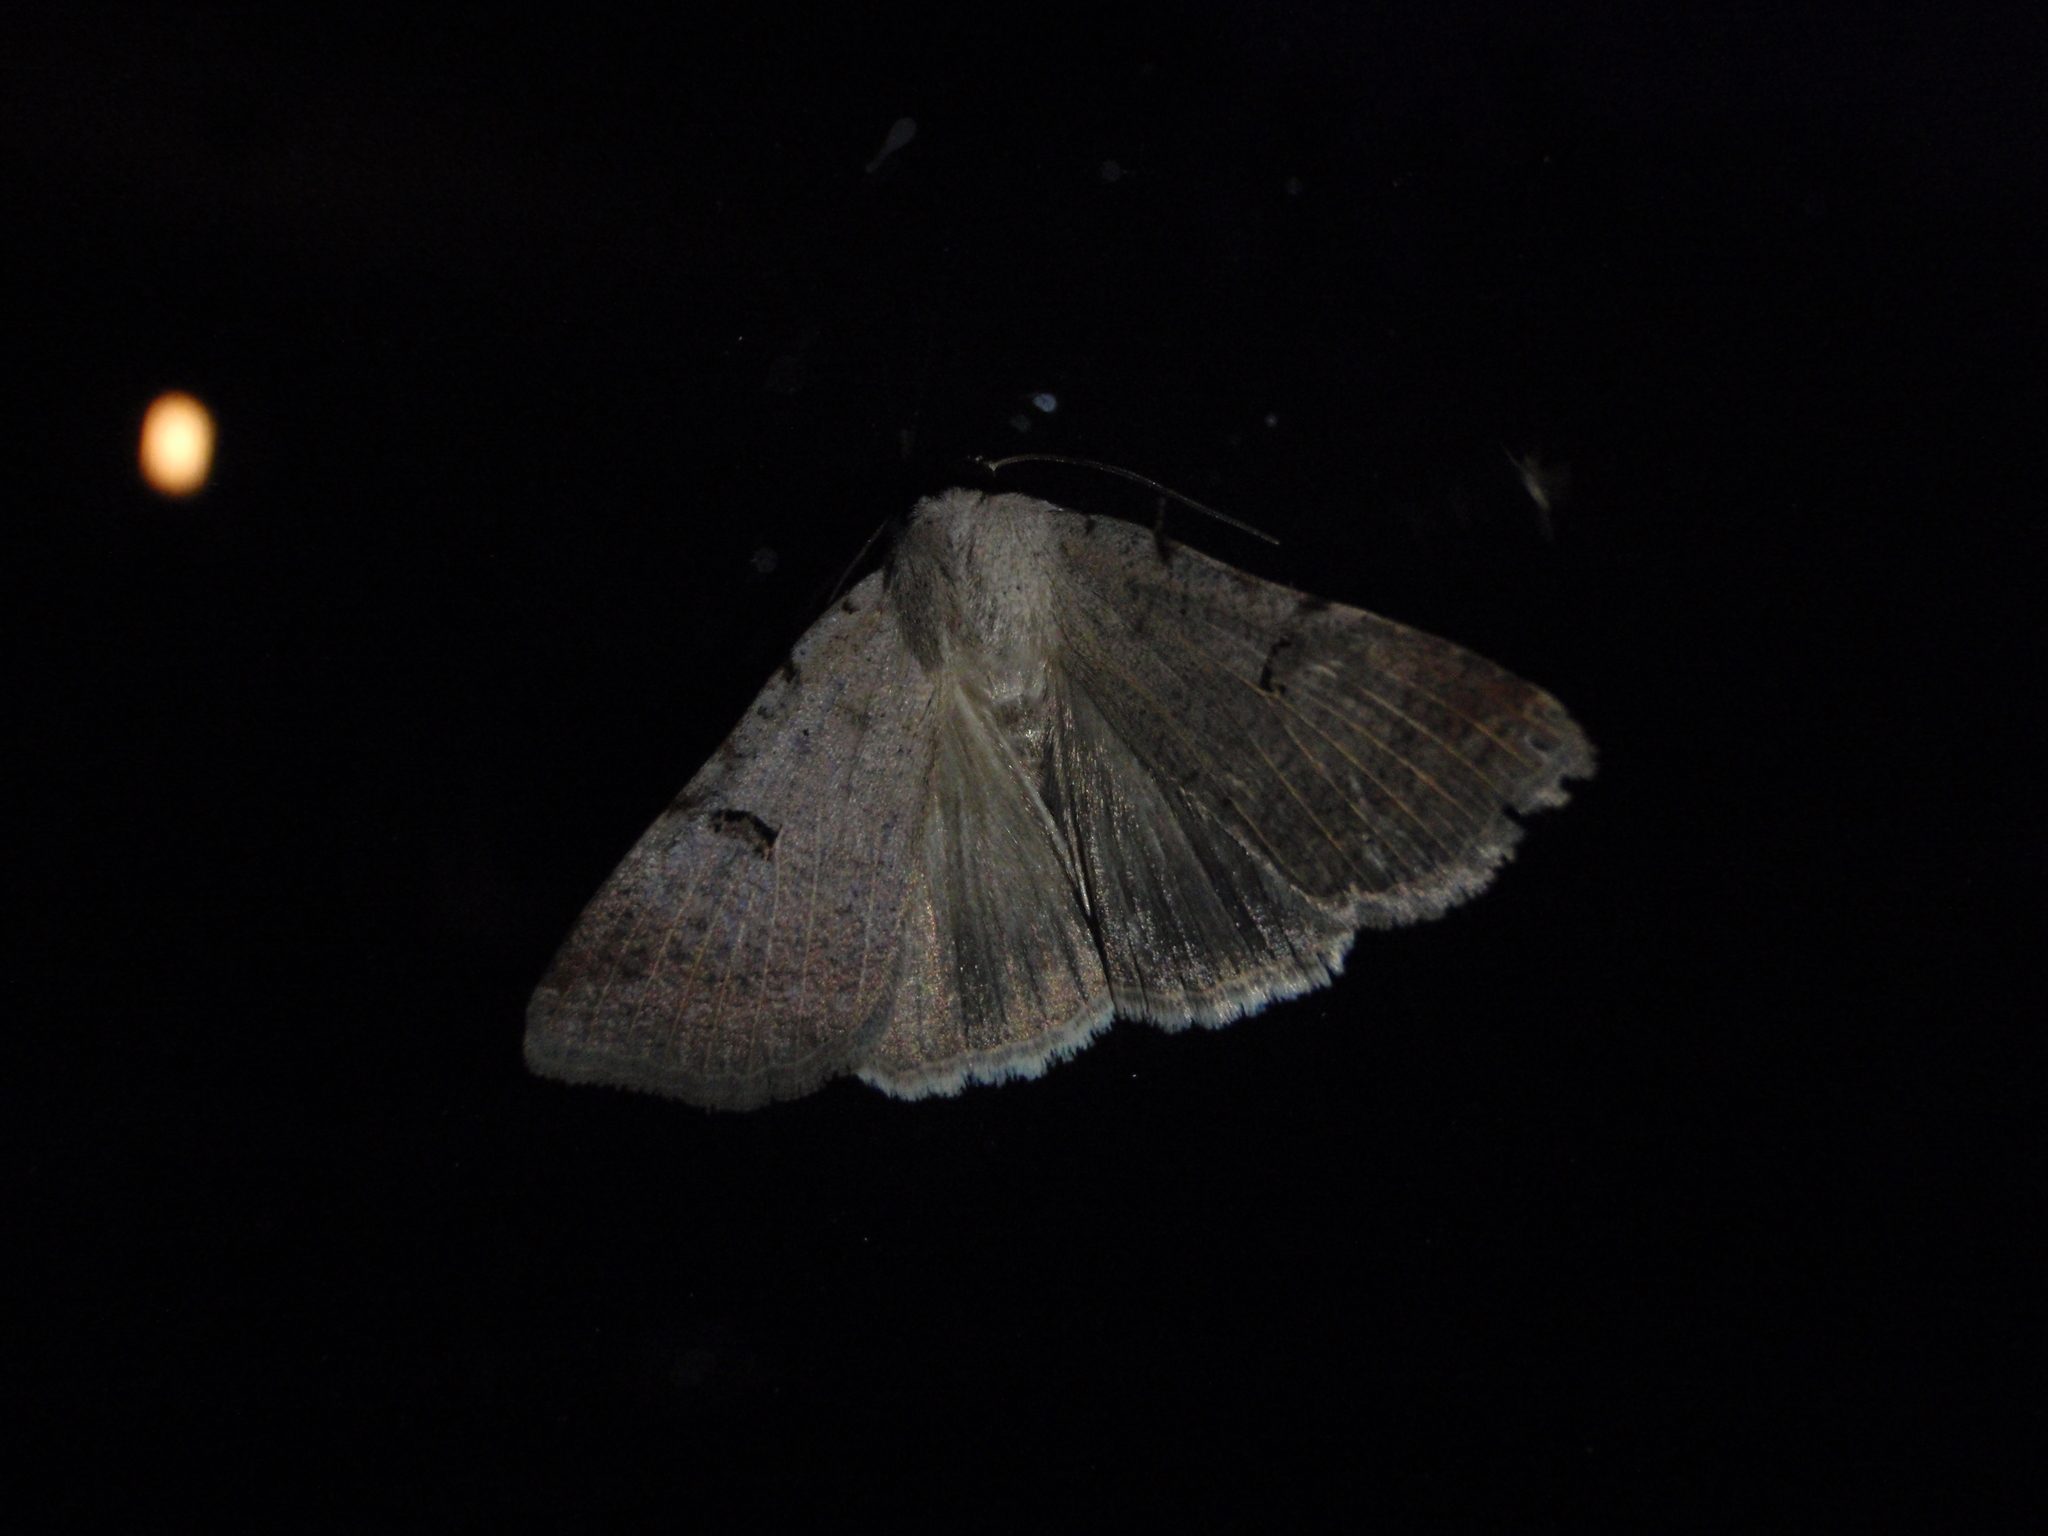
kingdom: Animalia
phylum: Arthropoda
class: Insecta
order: Lepidoptera
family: Erebidae
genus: Lygephila
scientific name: Lygephila craccae
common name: Scarce blackneck
